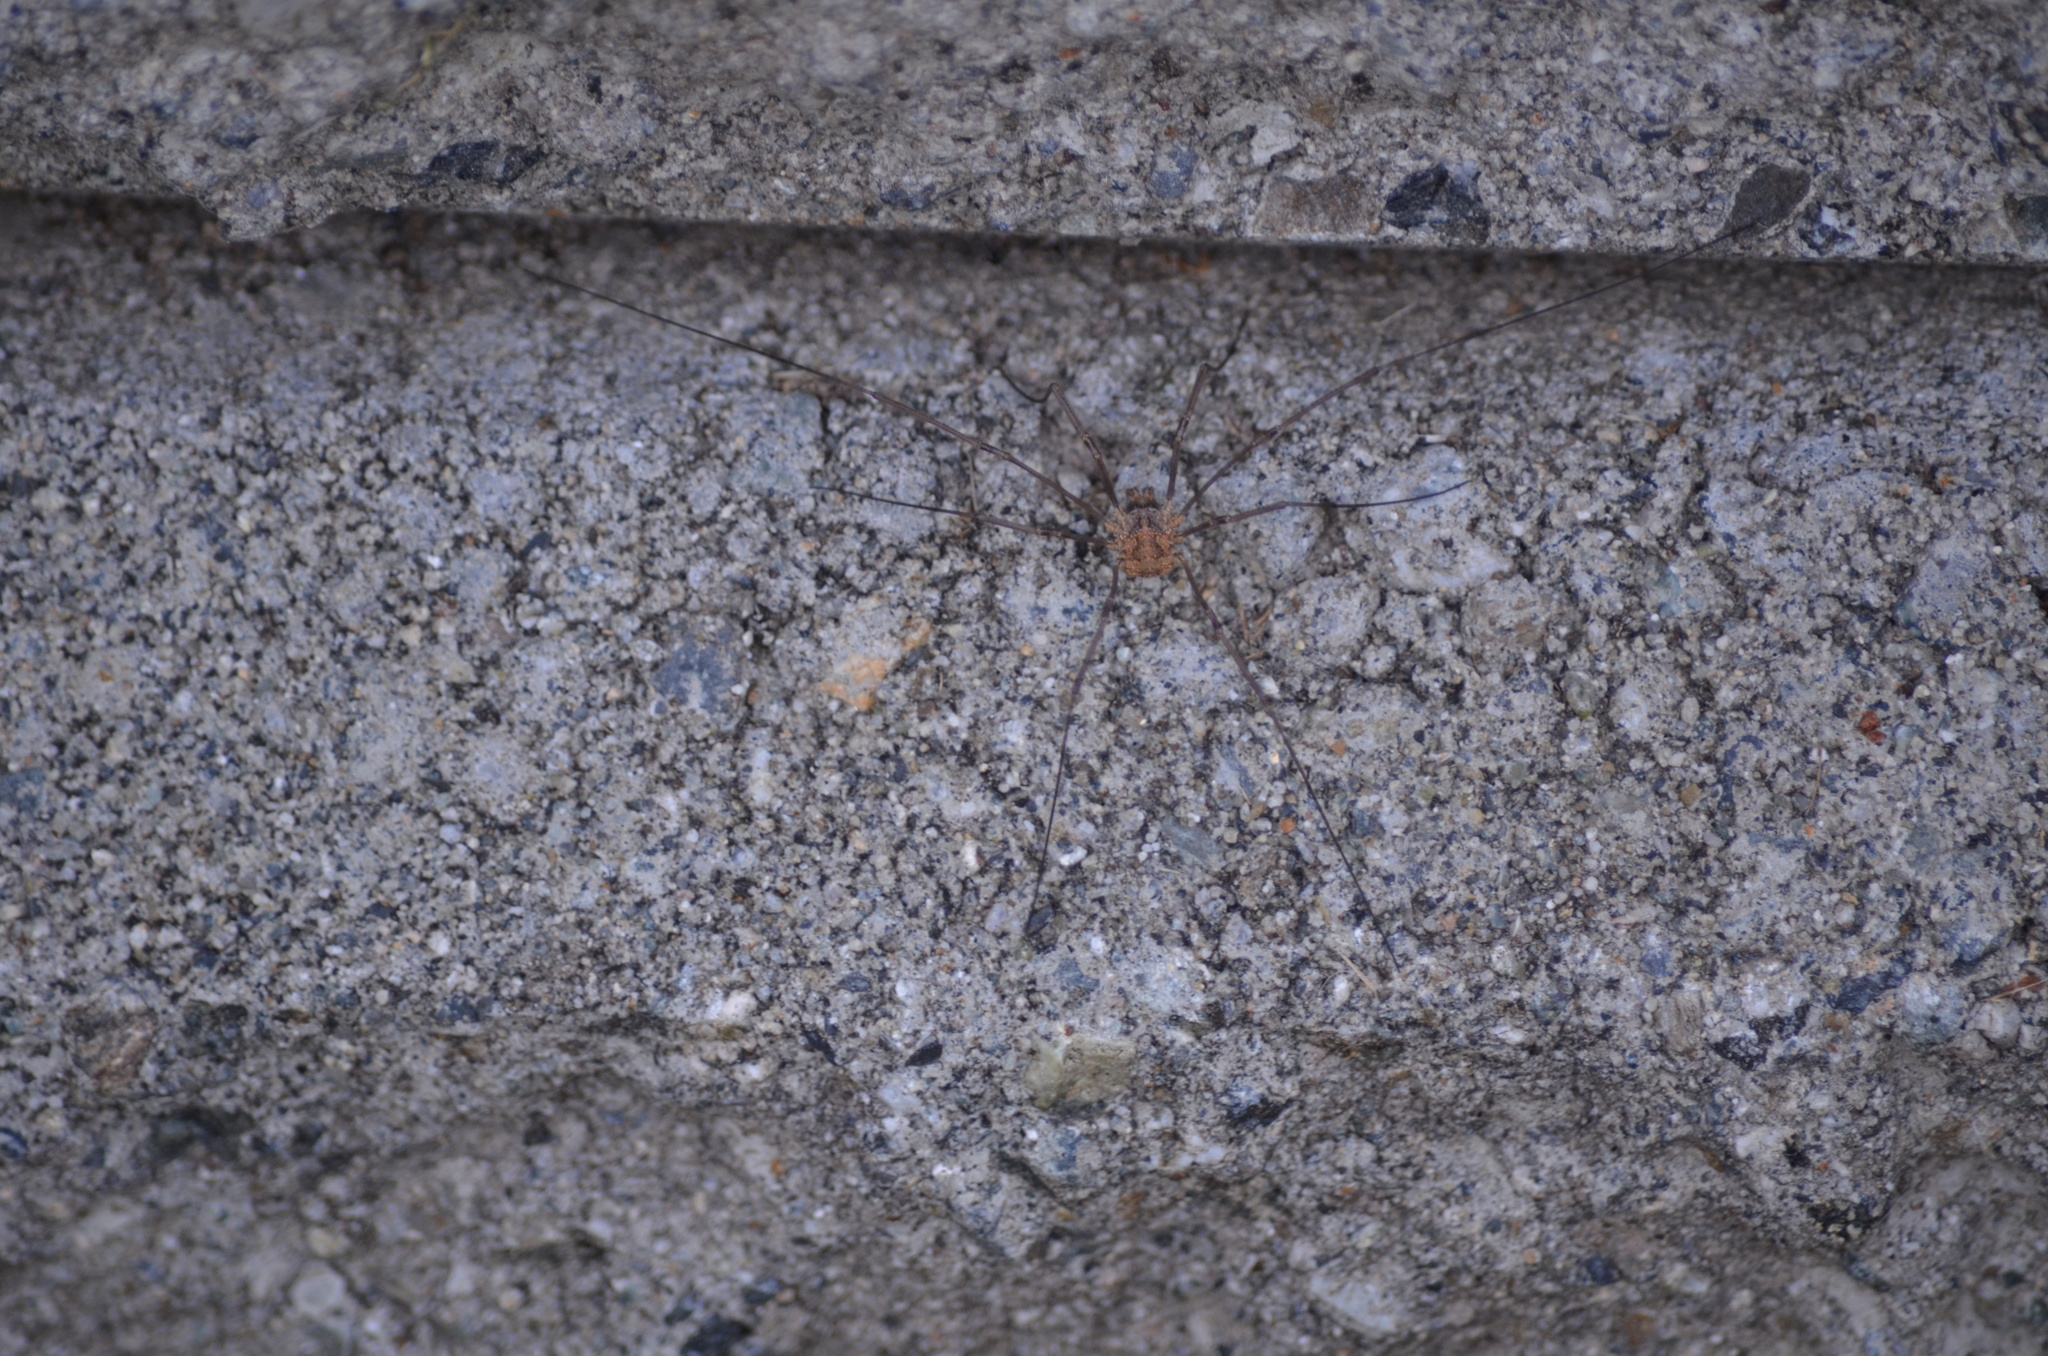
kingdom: Animalia
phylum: Arthropoda
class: Arachnida
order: Opiliones
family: Phalangiidae
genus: Phalangium
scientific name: Phalangium opilio
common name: Daddy longleg
